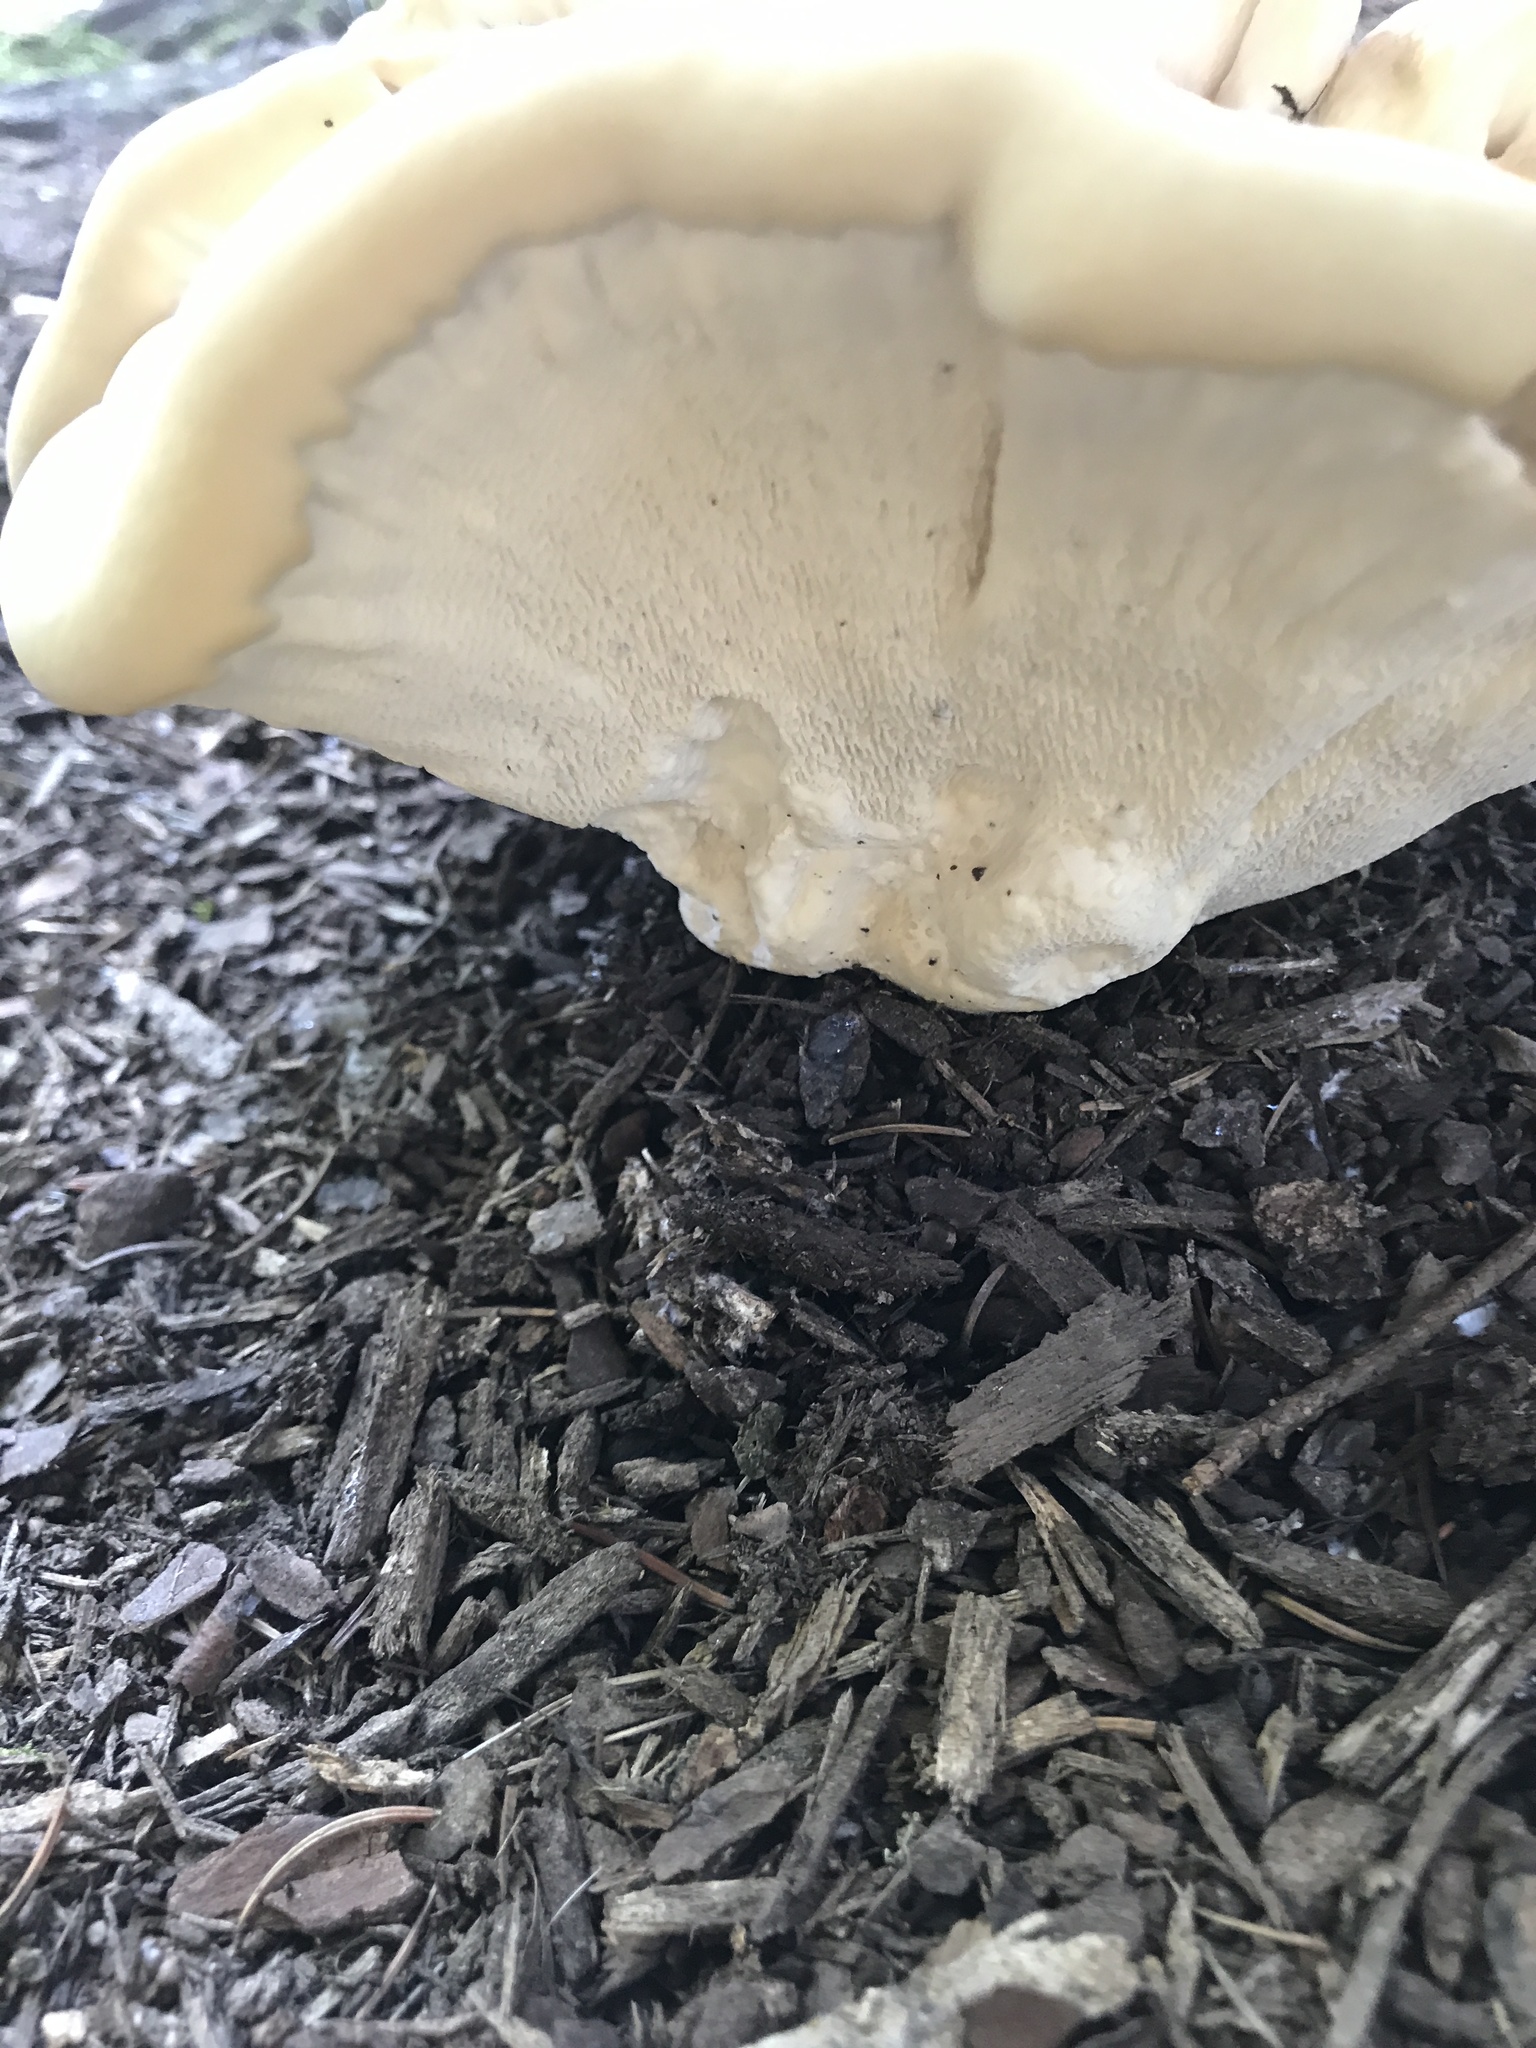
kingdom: Fungi
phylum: Basidiomycota
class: Agaricomycetes
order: Russulales
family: Bondarzewiaceae
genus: Bondarzewia
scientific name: Bondarzewia berkeleyi
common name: Berkeley's polypore
